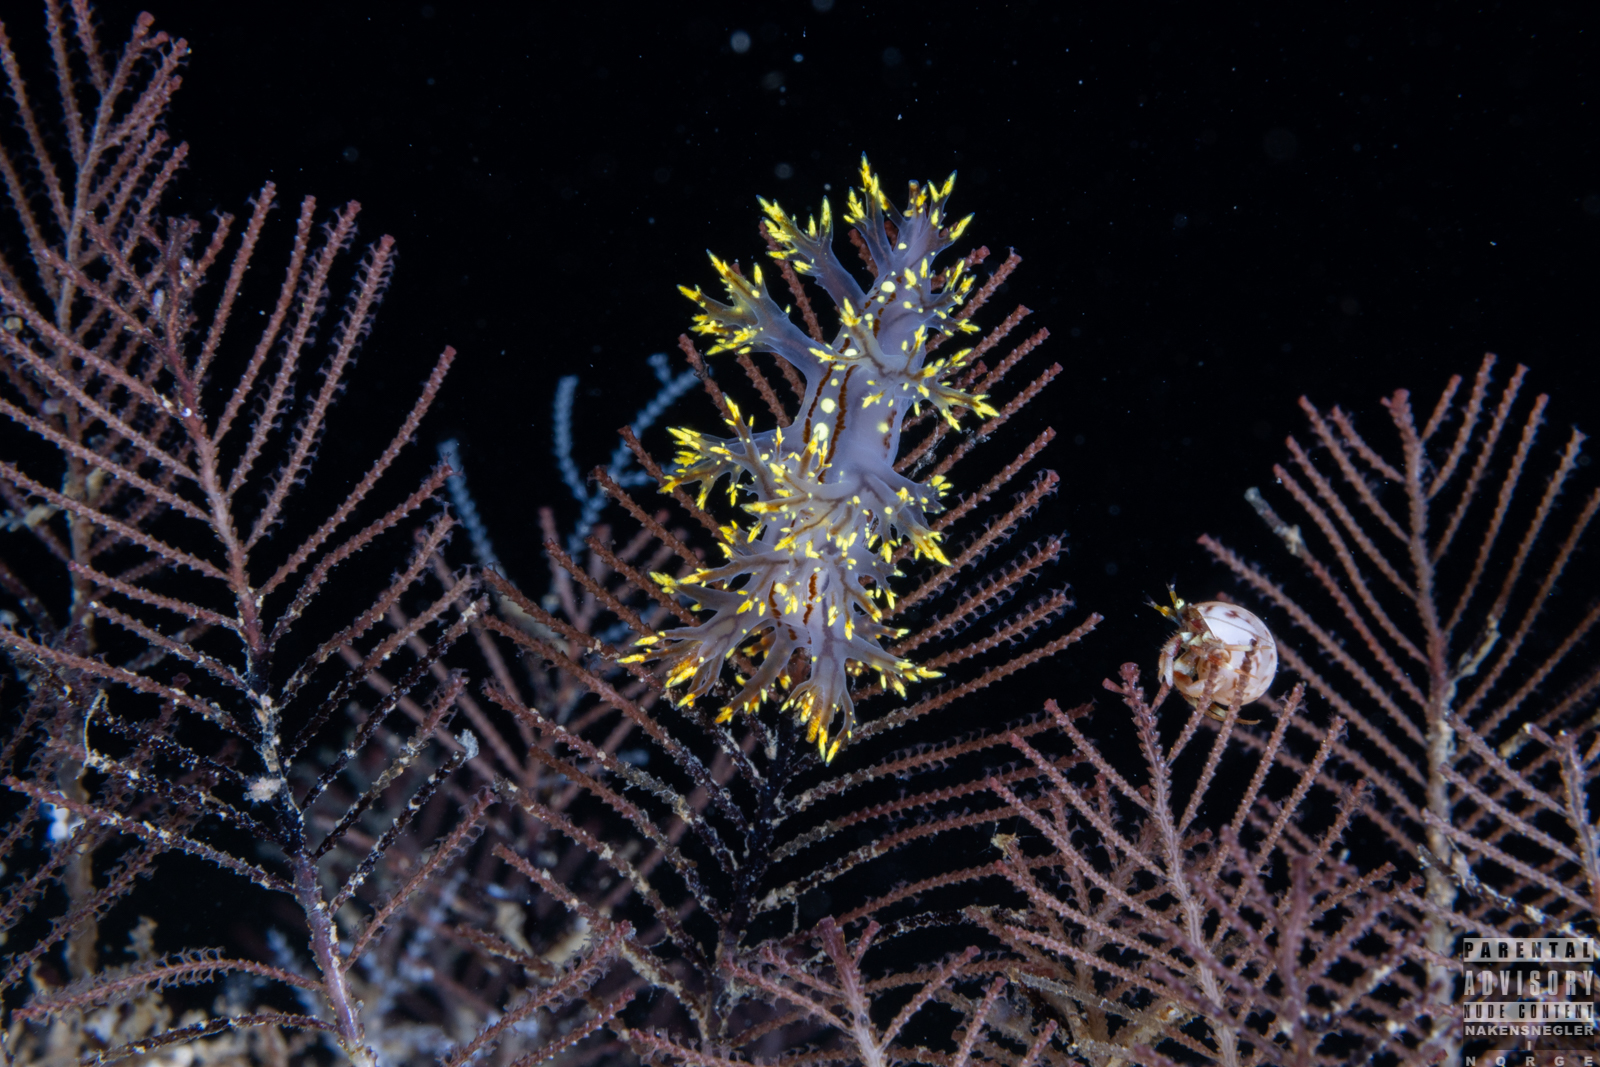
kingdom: Animalia
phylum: Mollusca
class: Gastropoda
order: Nudibranchia
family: Dendronotidae
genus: Dendronotus
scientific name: Dendronotus yrjargul
